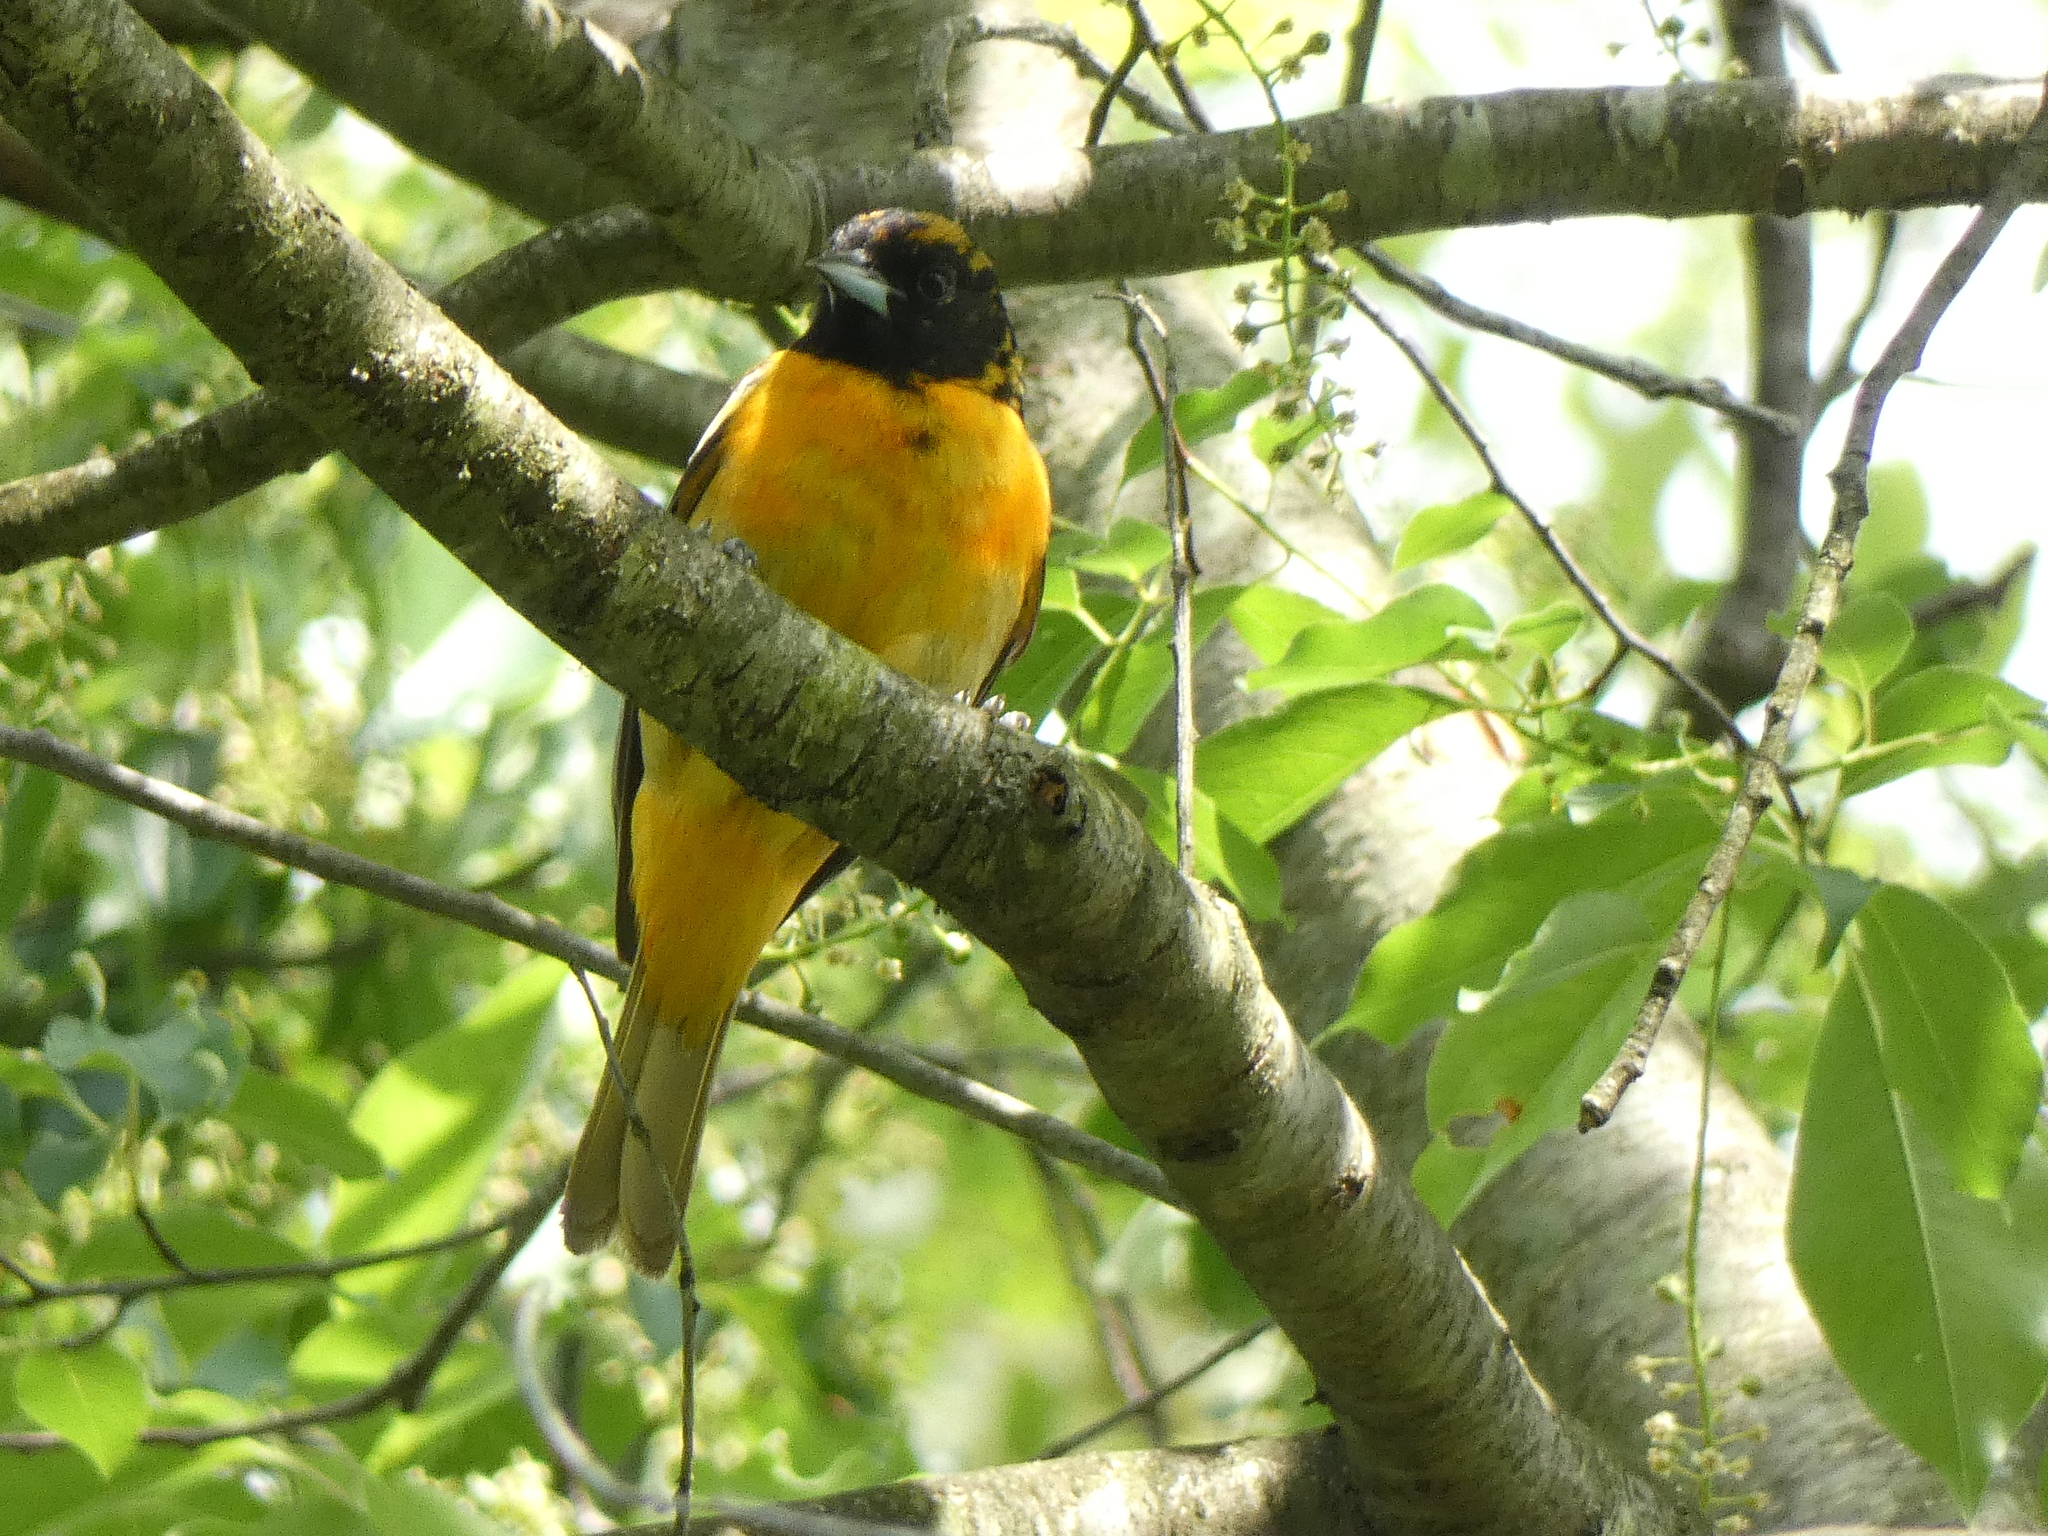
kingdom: Animalia
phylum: Chordata
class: Aves
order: Passeriformes
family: Icteridae
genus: Icterus
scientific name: Icterus galbula
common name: Baltimore oriole
